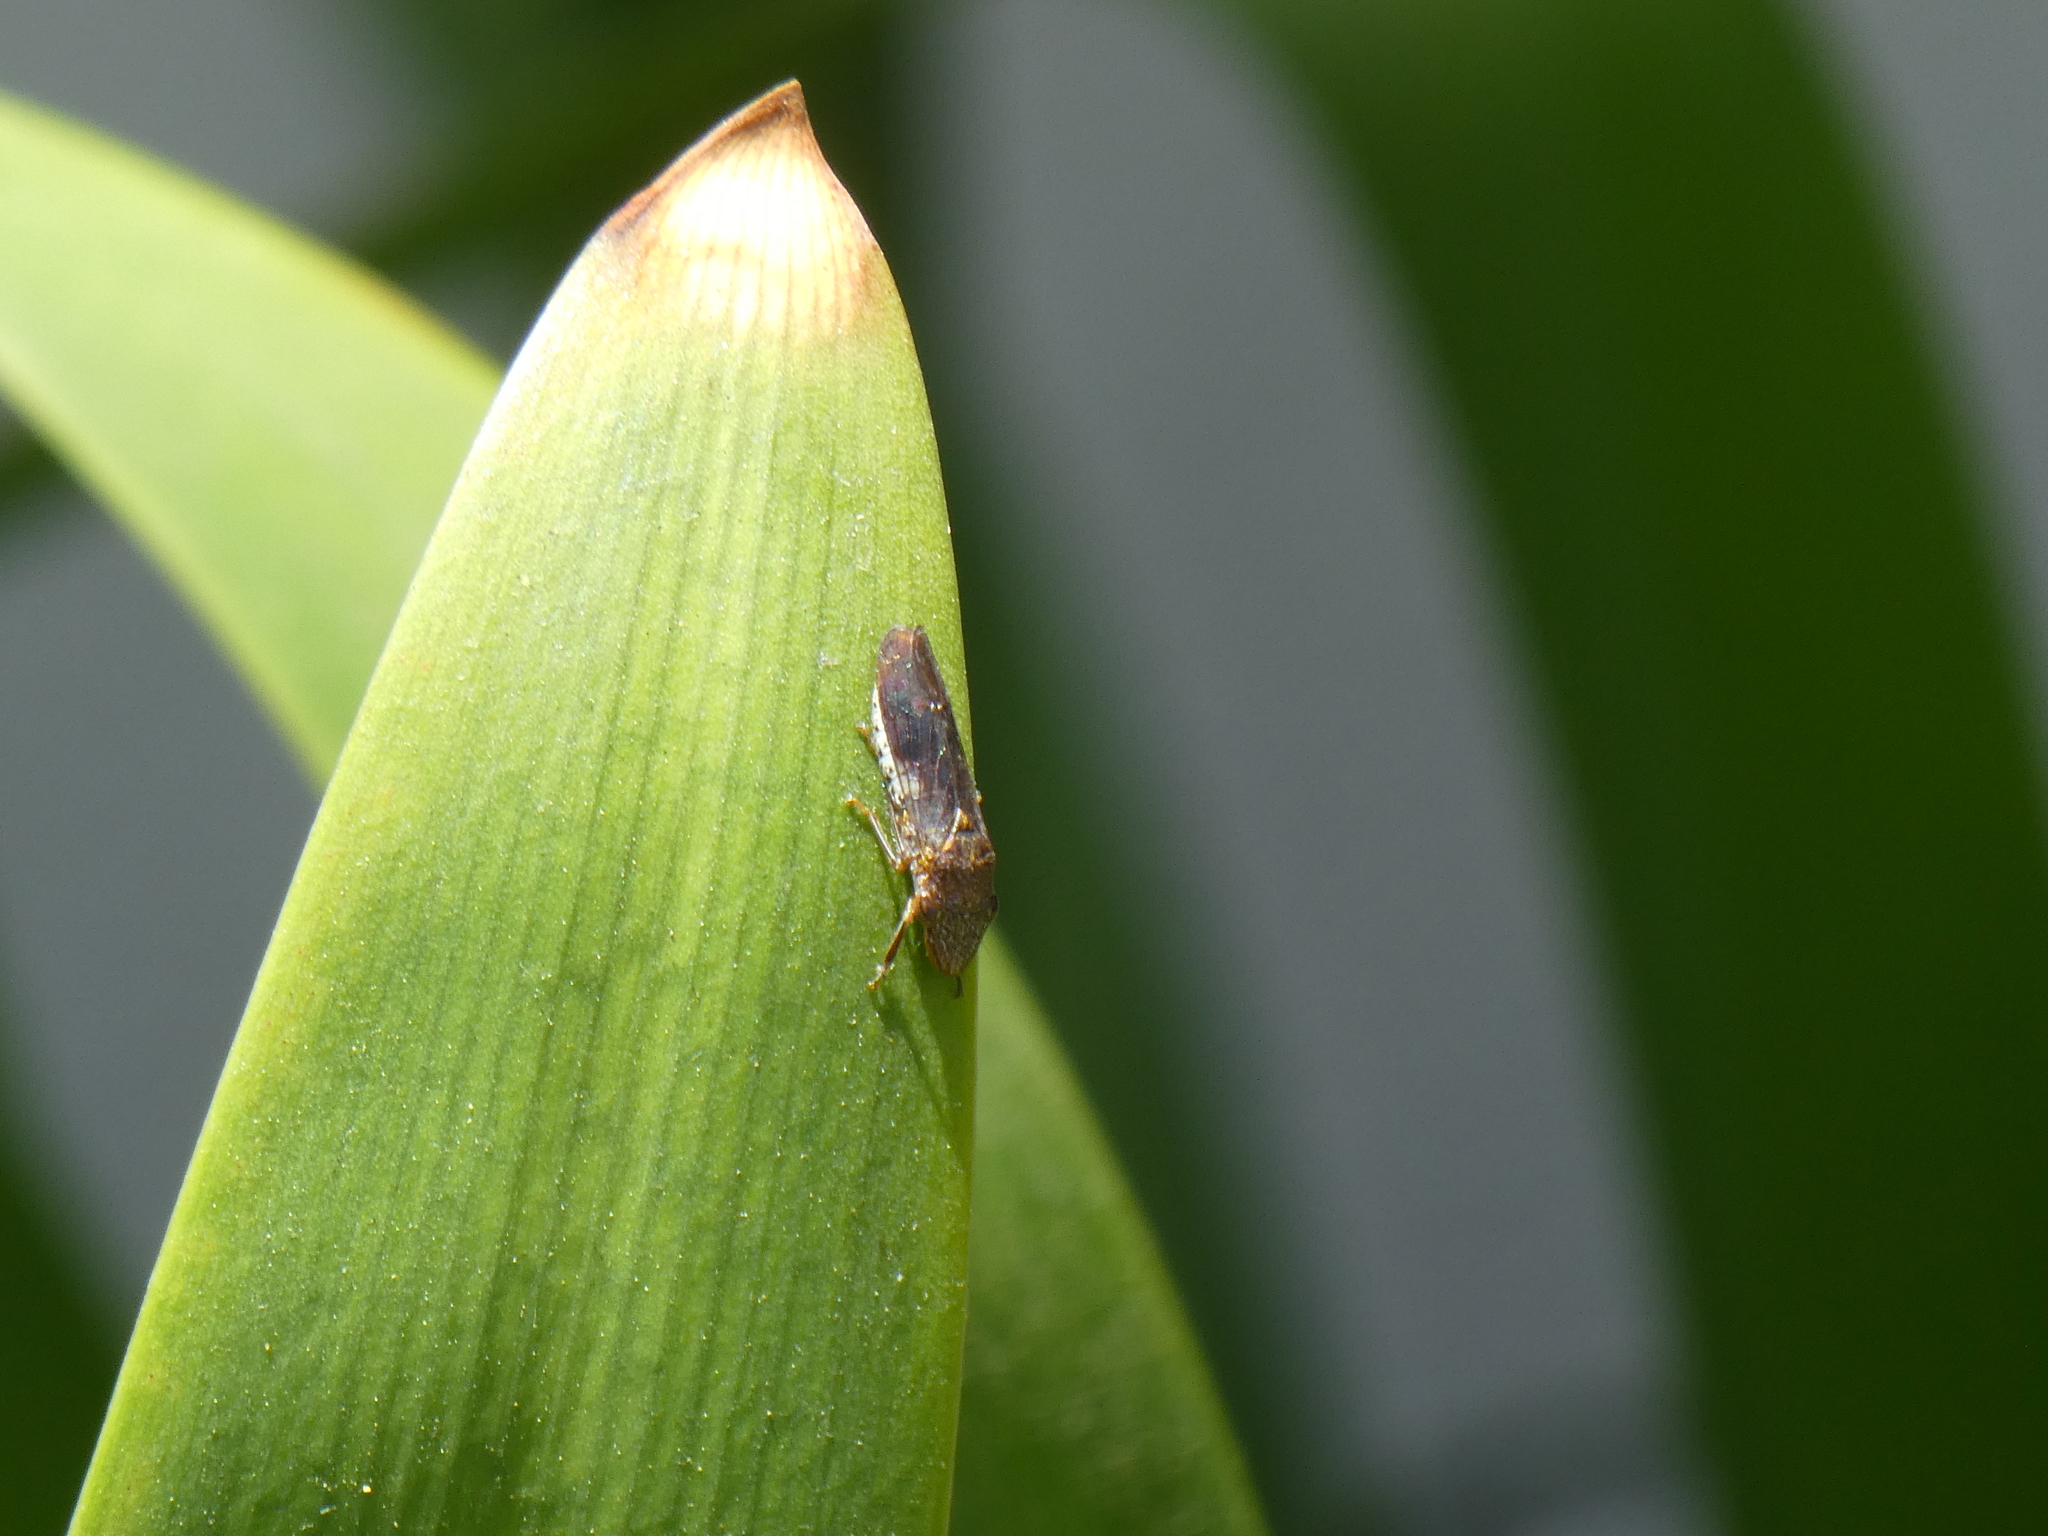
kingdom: Animalia
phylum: Arthropoda
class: Insecta
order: Hemiptera
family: Cicadellidae
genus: Homalodisca
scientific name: Homalodisca vitripennis
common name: Glassy-winged sharpshooter
